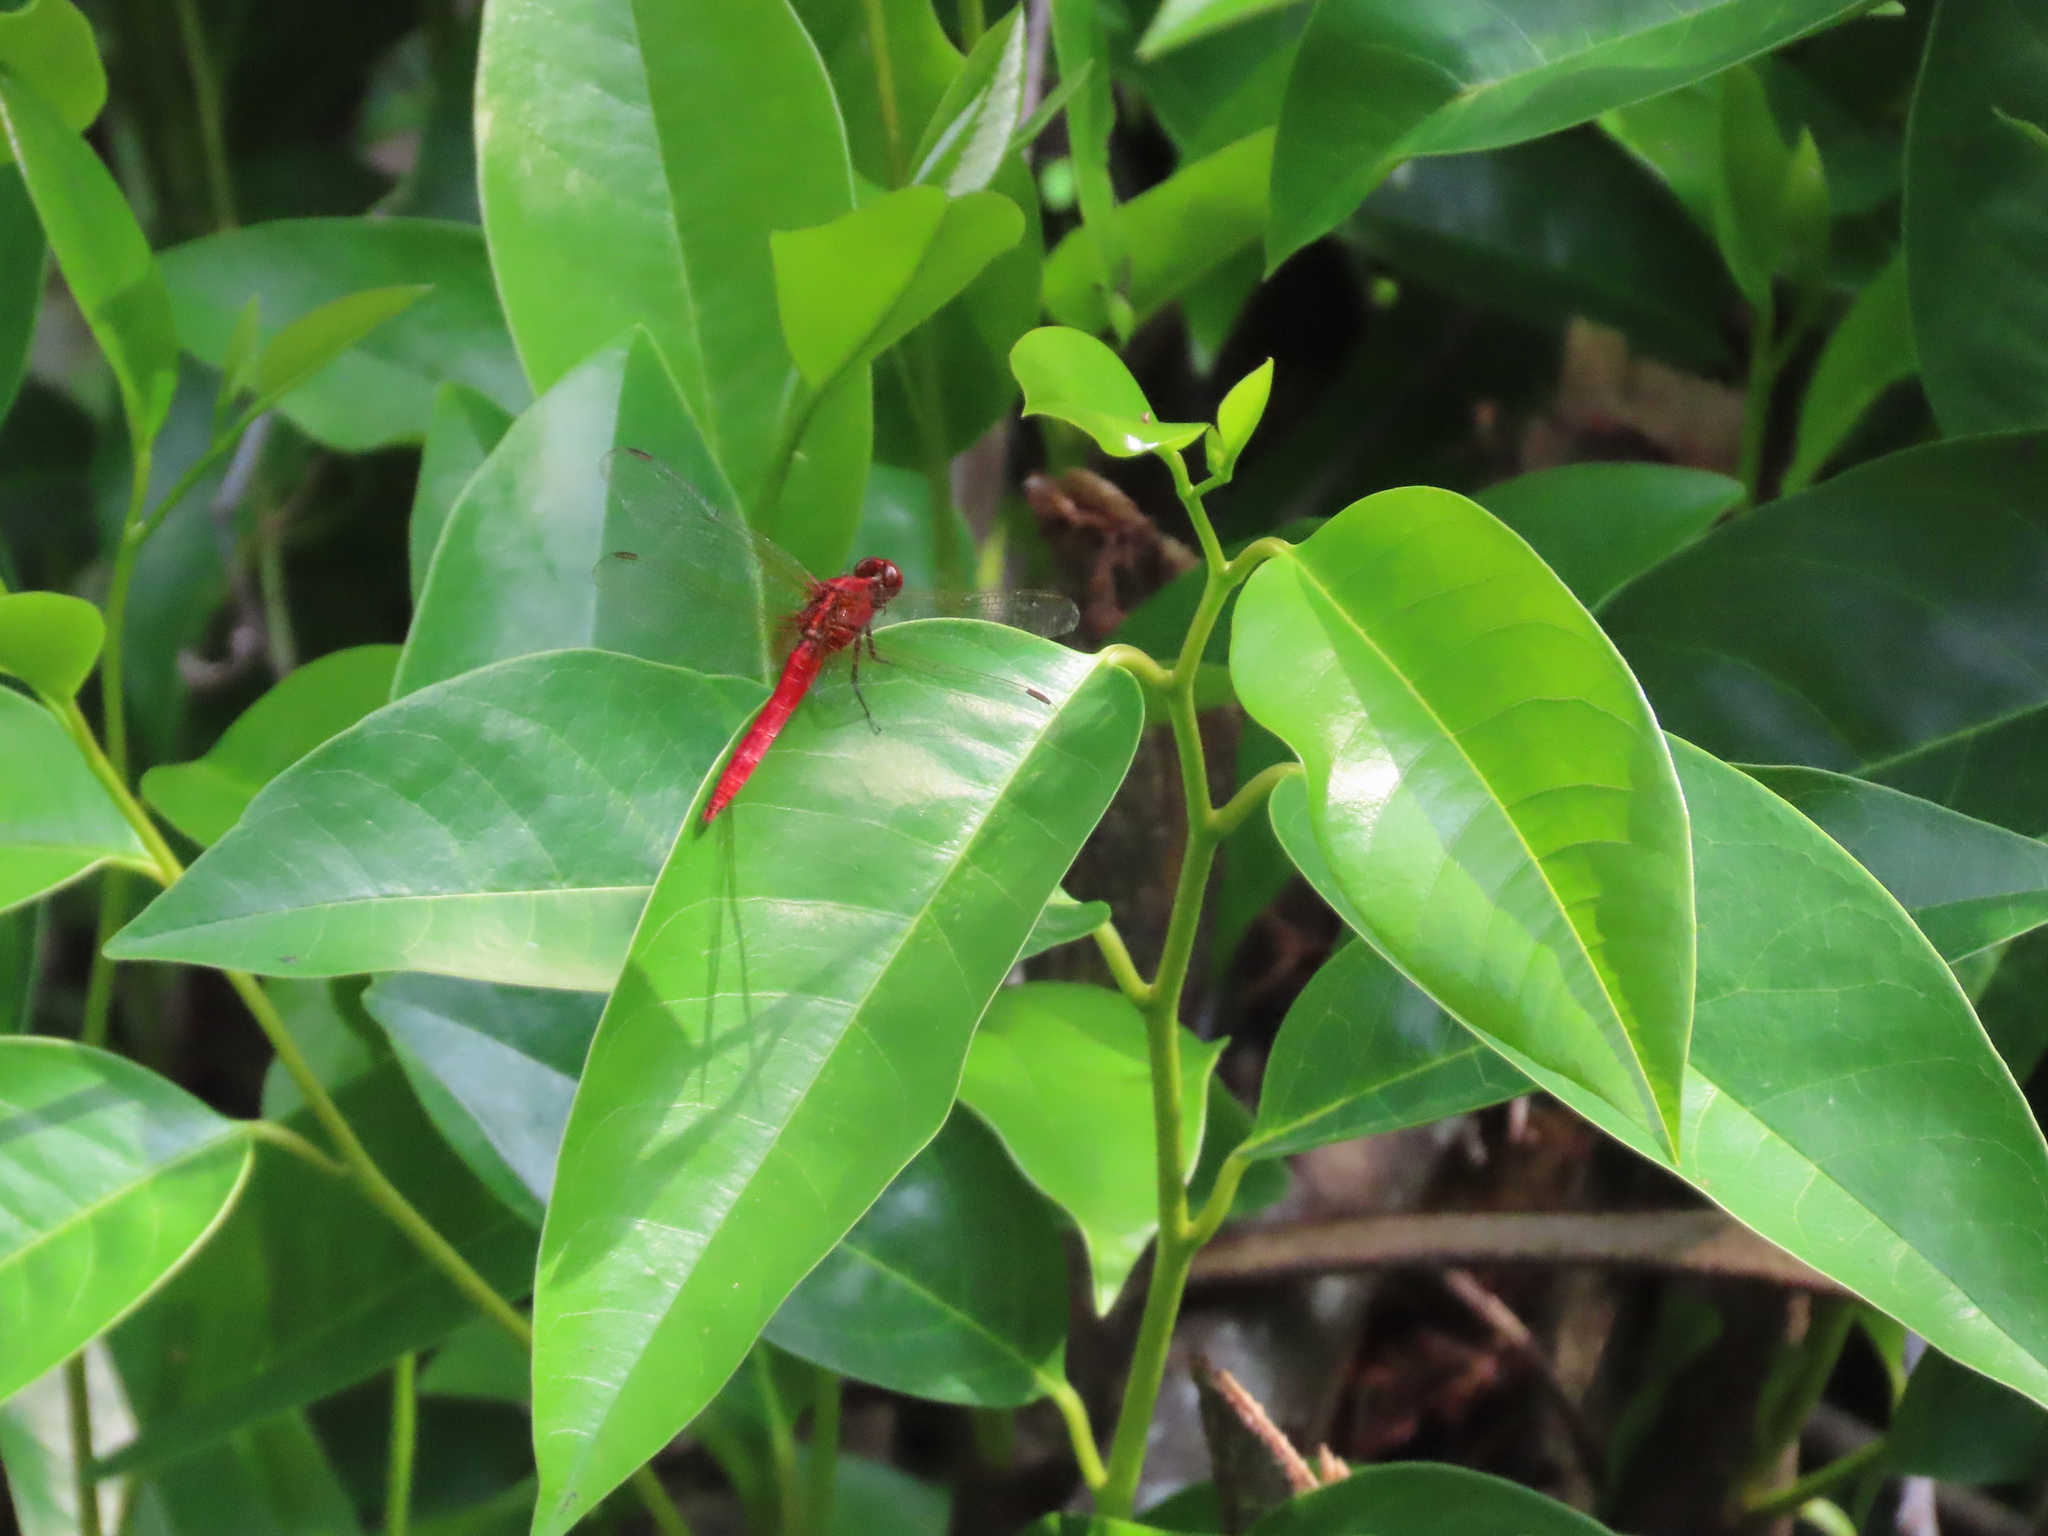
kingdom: Animalia
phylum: Arthropoda
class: Insecta
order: Odonata
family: Libellulidae
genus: Rhodothemis
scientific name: Rhodothemis rufa
